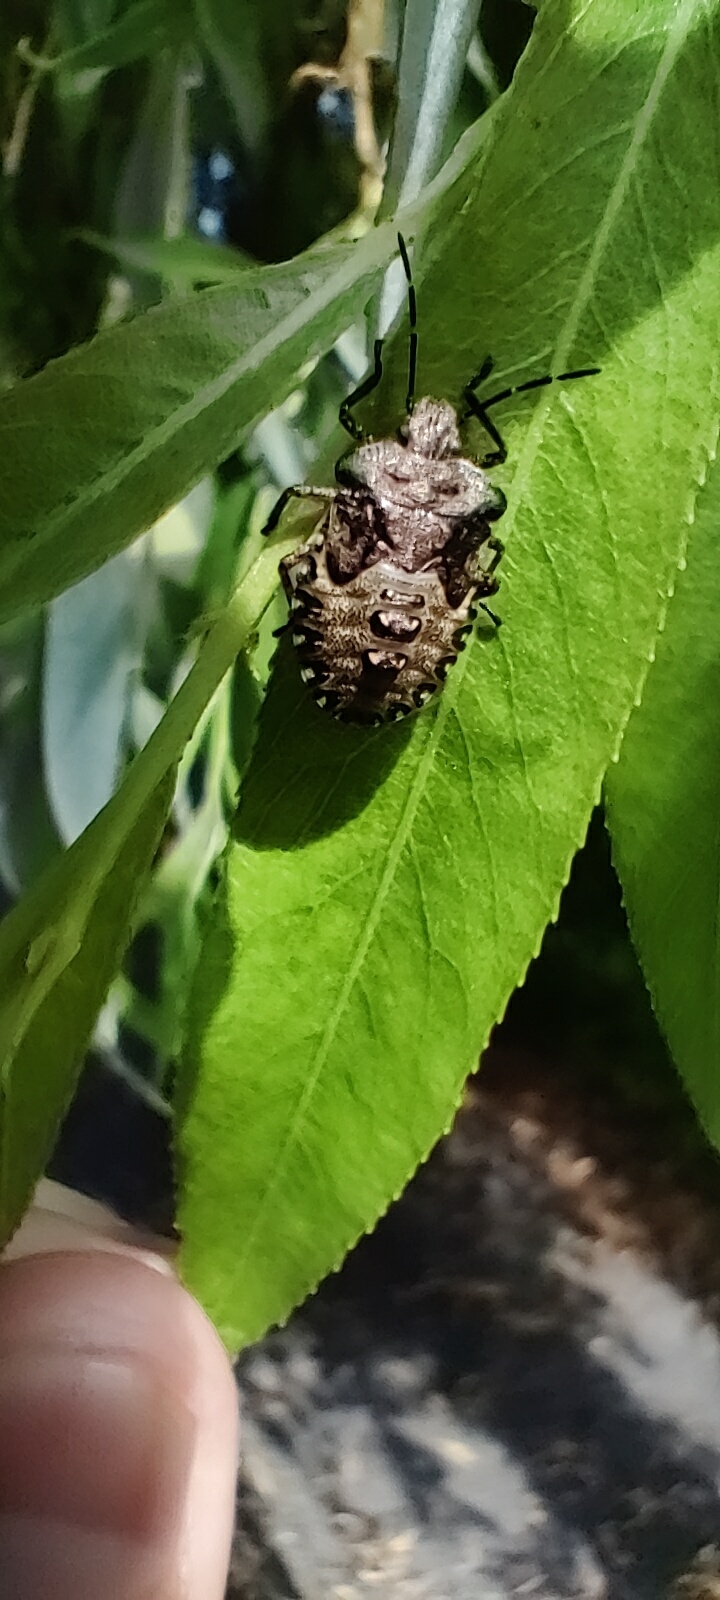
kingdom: Animalia
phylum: Arthropoda
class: Insecta
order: Hemiptera
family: Pentatomidae
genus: Pentatoma
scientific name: Pentatoma rufipes
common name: Forest bug
